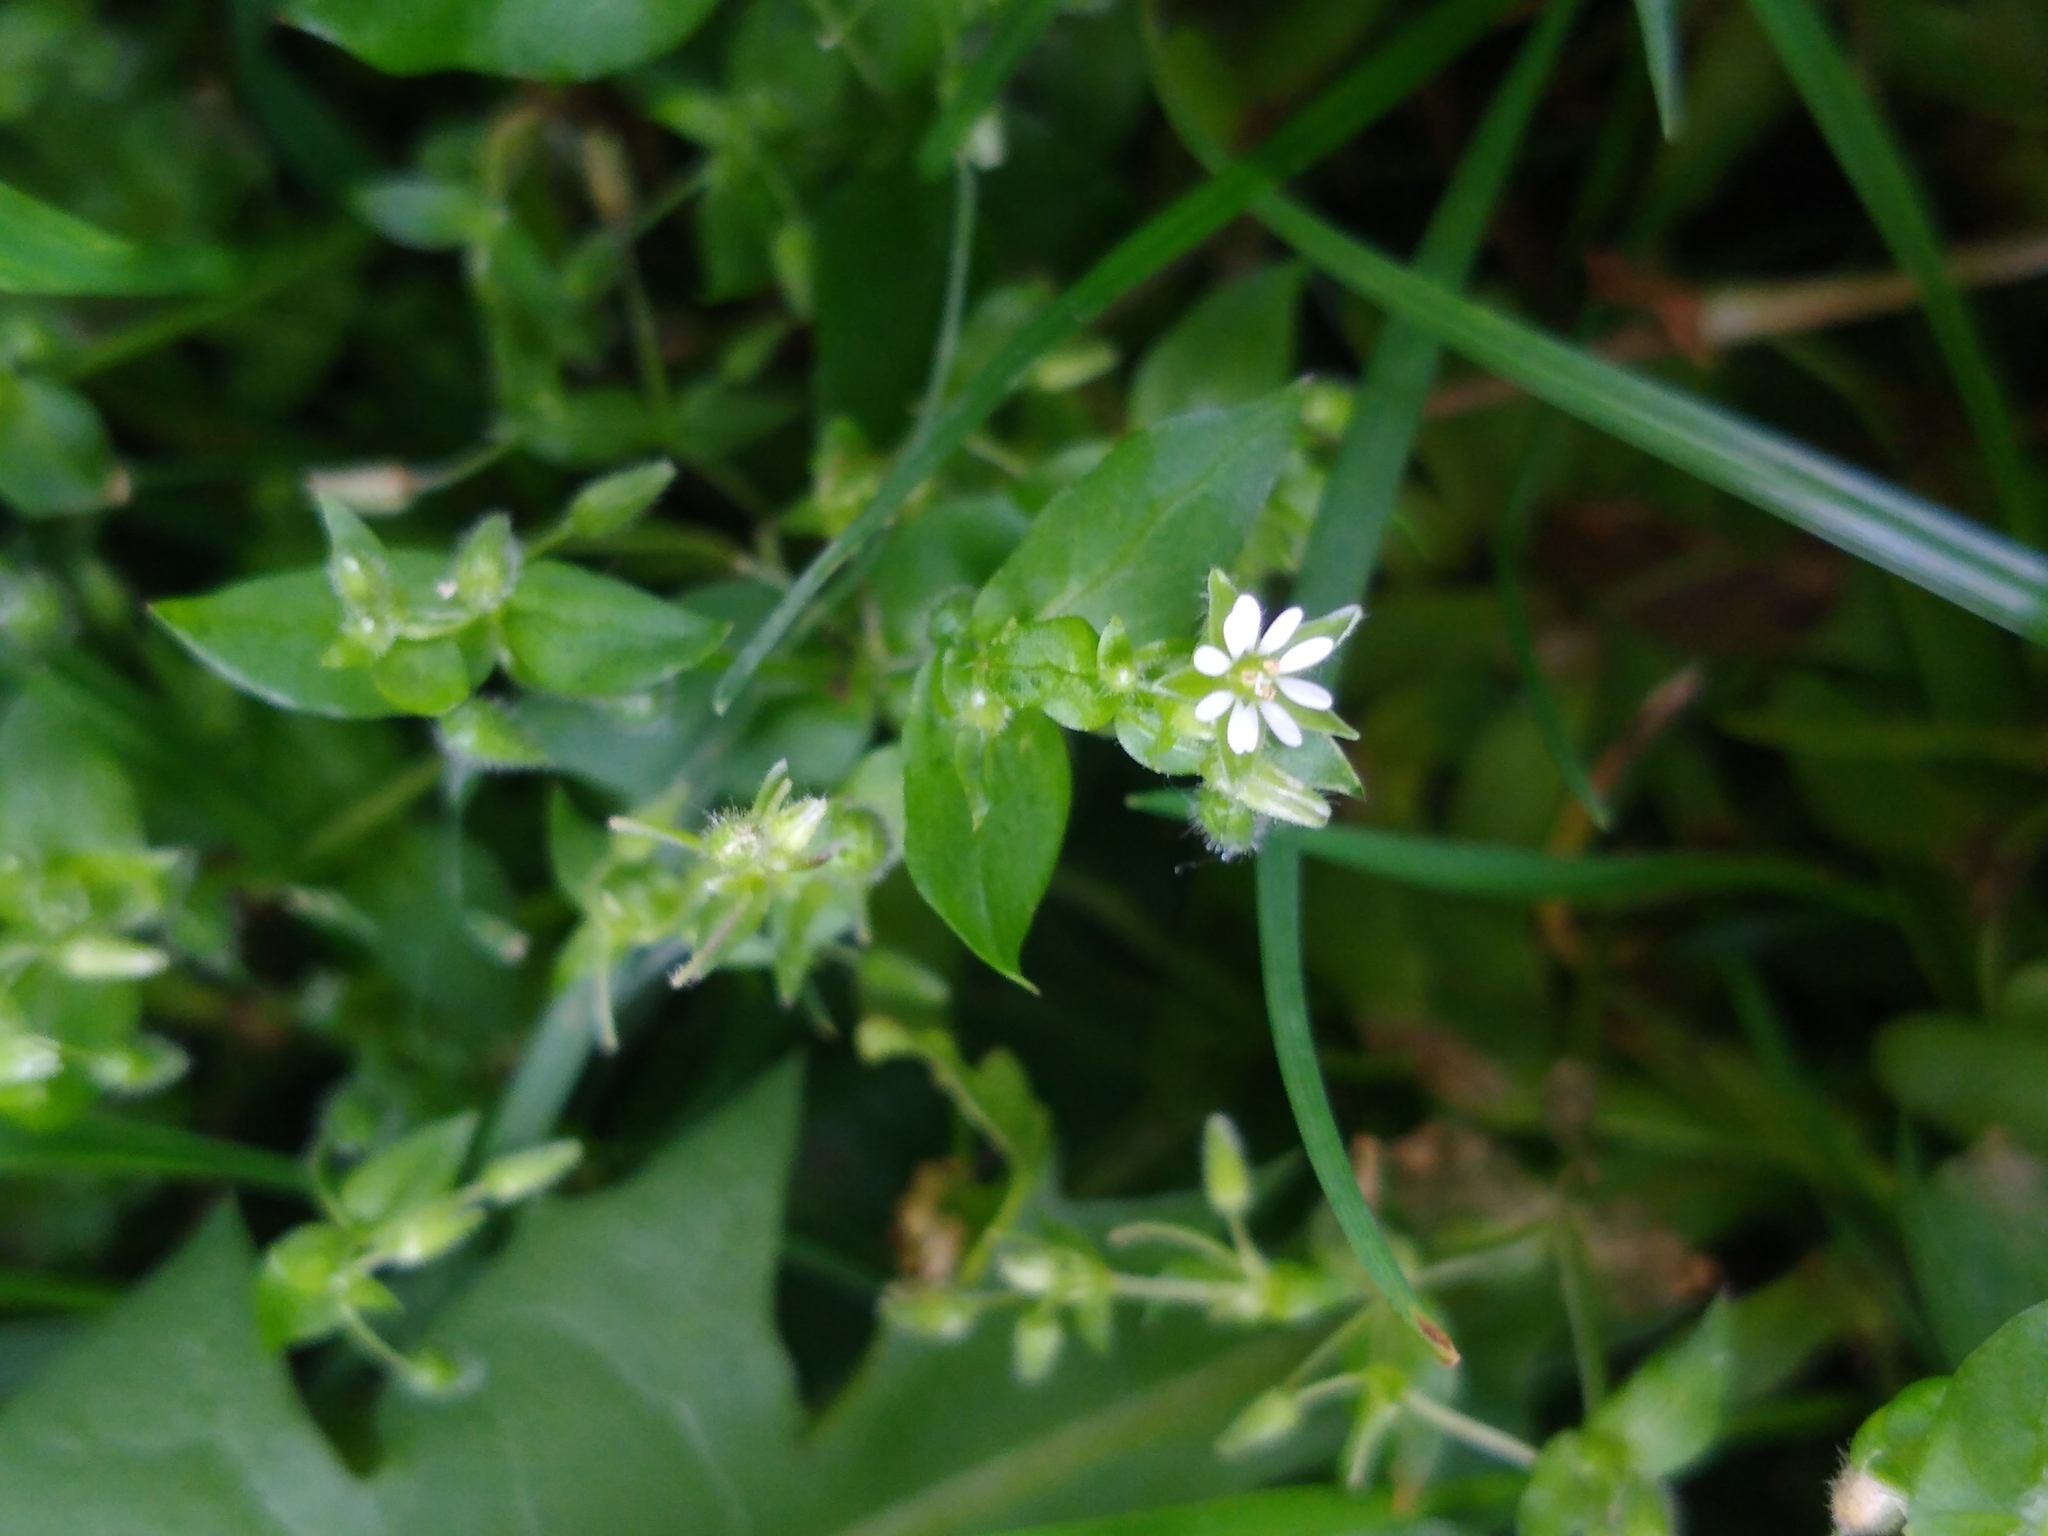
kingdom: Plantae
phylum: Tracheophyta
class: Magnoliopsida
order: Caryophyllales
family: Caryophyllaceae
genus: Stellaria
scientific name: Stellaria media
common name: Common chickweed
